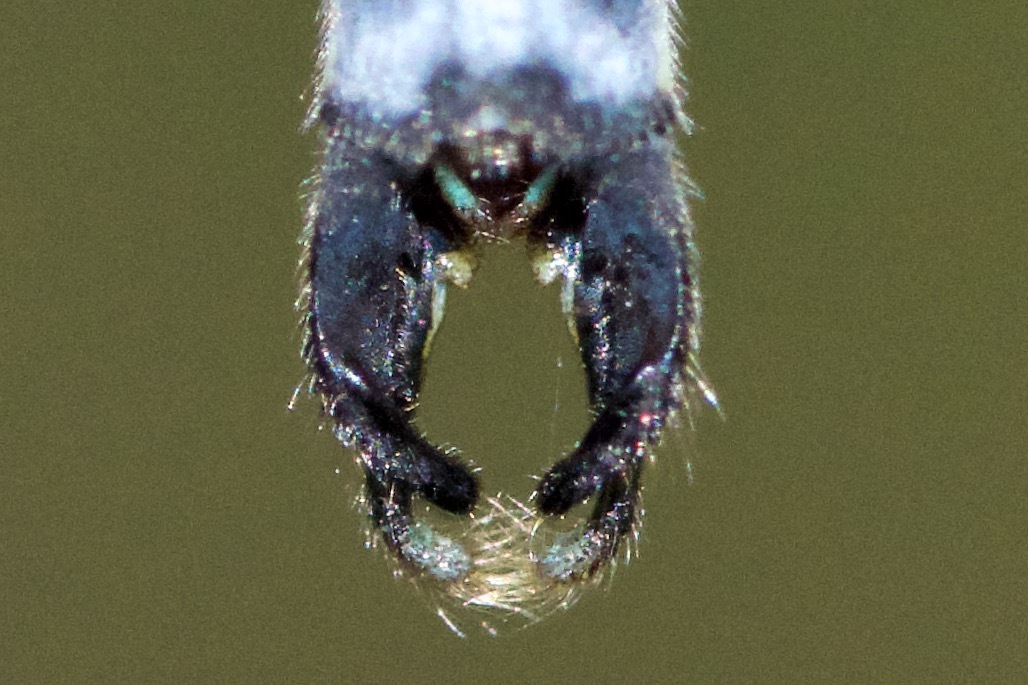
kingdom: Animalia
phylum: Arthropoda
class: Insecta
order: Odonata
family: Lestidae
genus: Lestes
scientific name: Lestes inaequalis
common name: Elegant spreadwing
